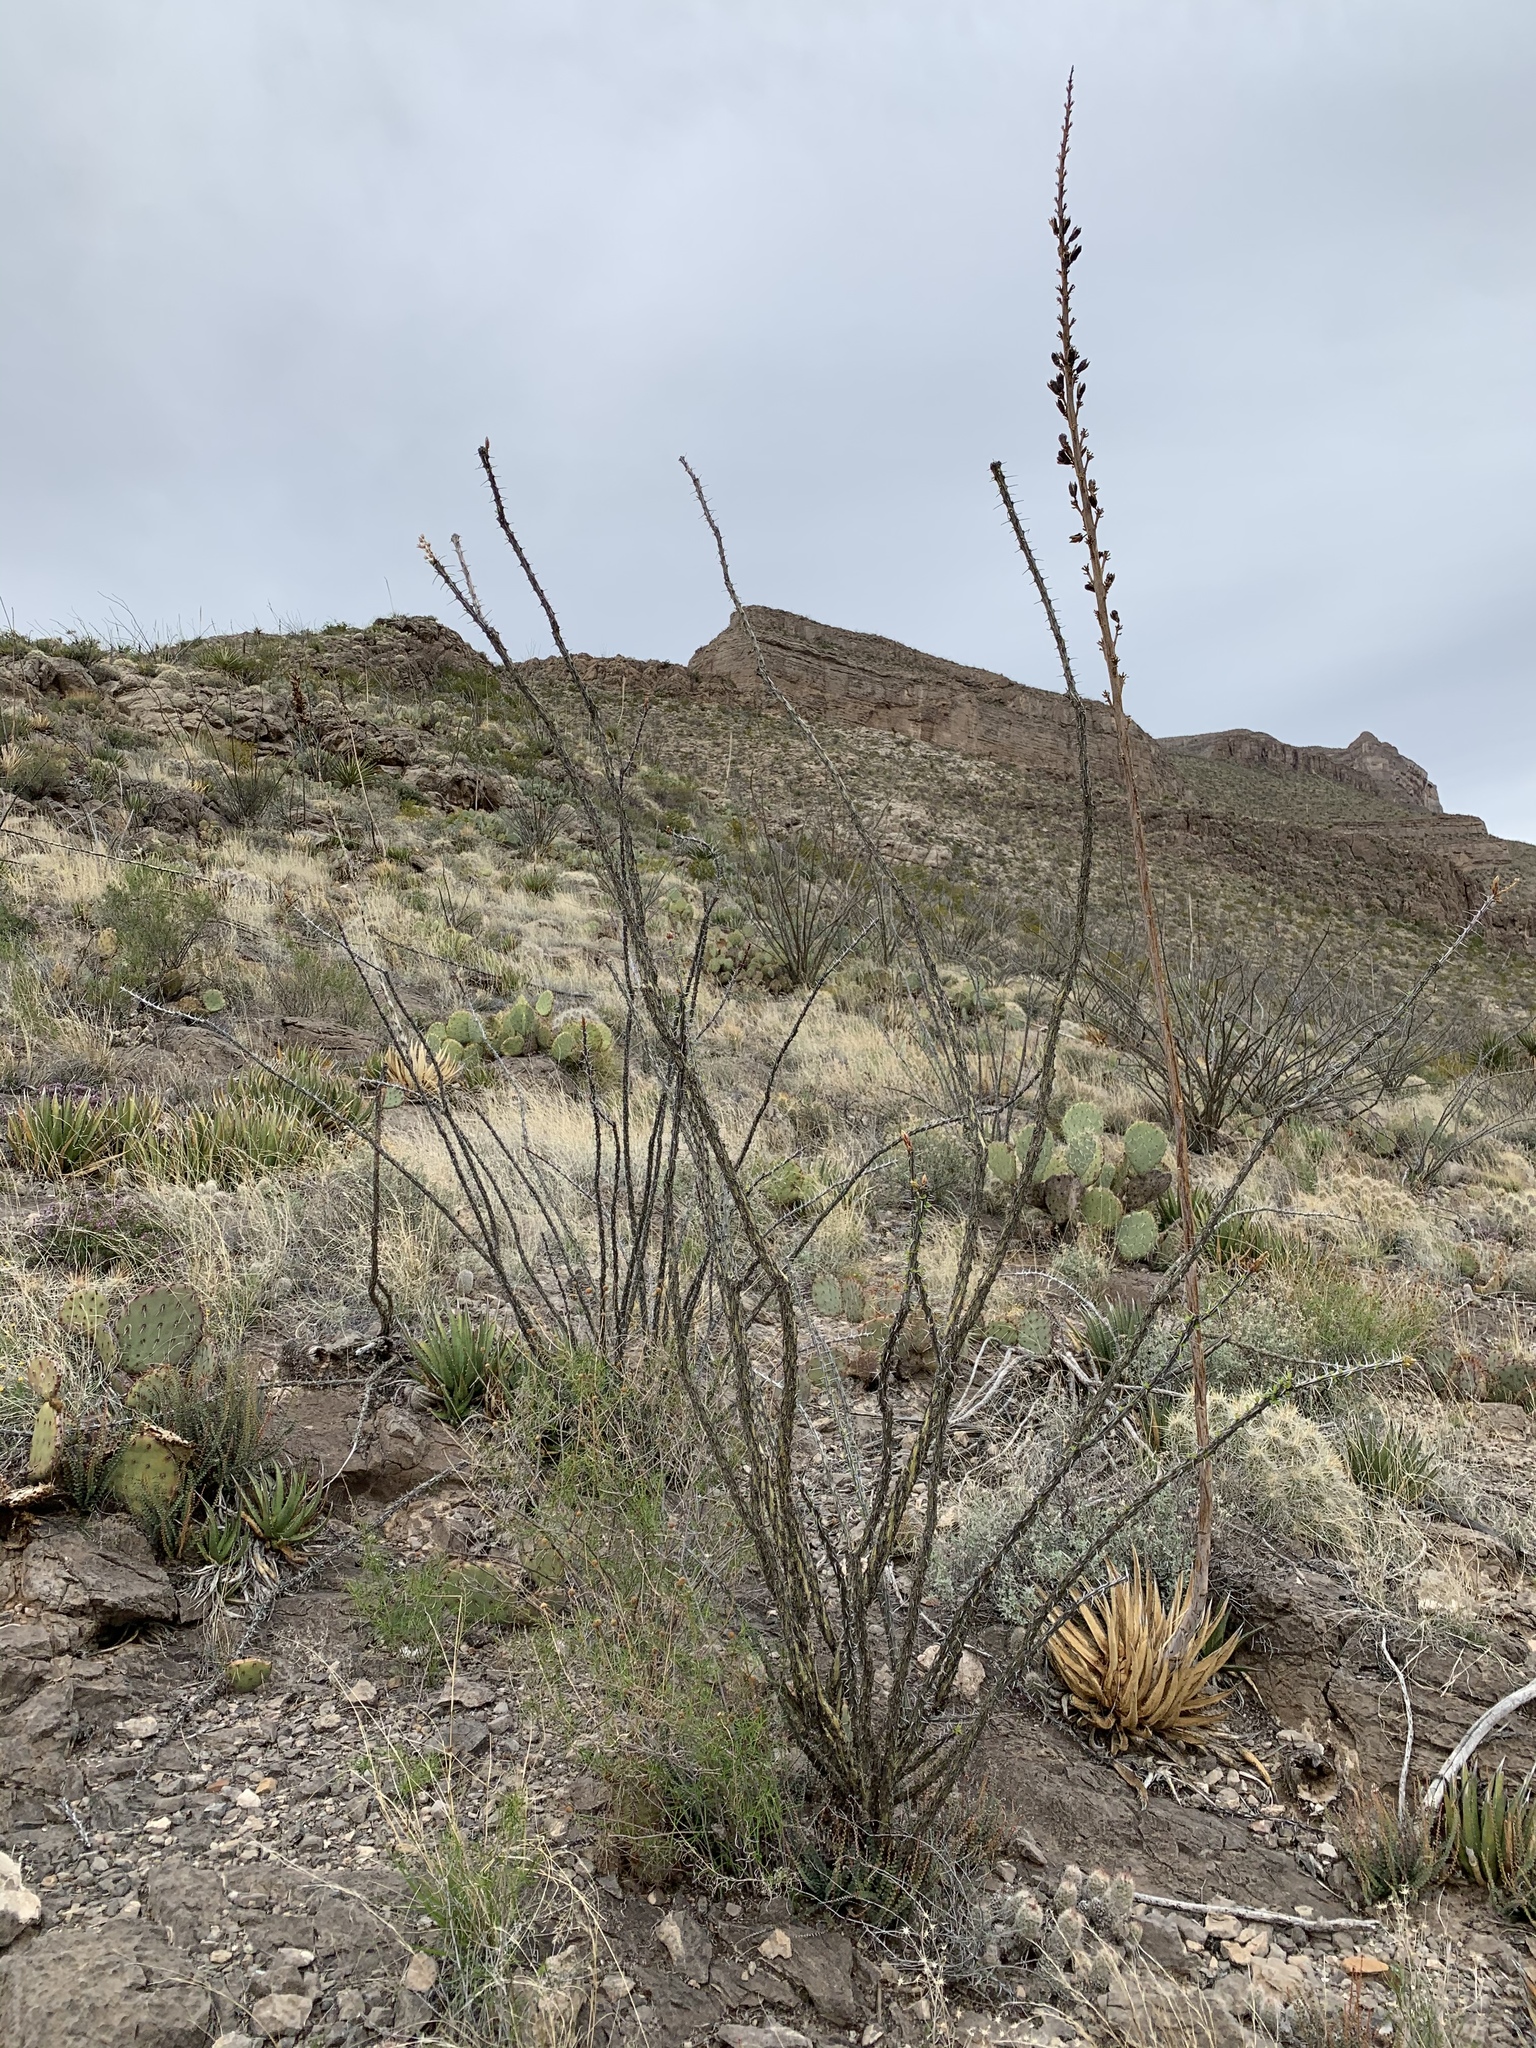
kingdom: Plantae
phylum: Tracheophyta
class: Magnoliopsida
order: Ericales
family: Fouquieriaceae
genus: Fouquieria
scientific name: Fouquieria splendens
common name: Vine-cactus
